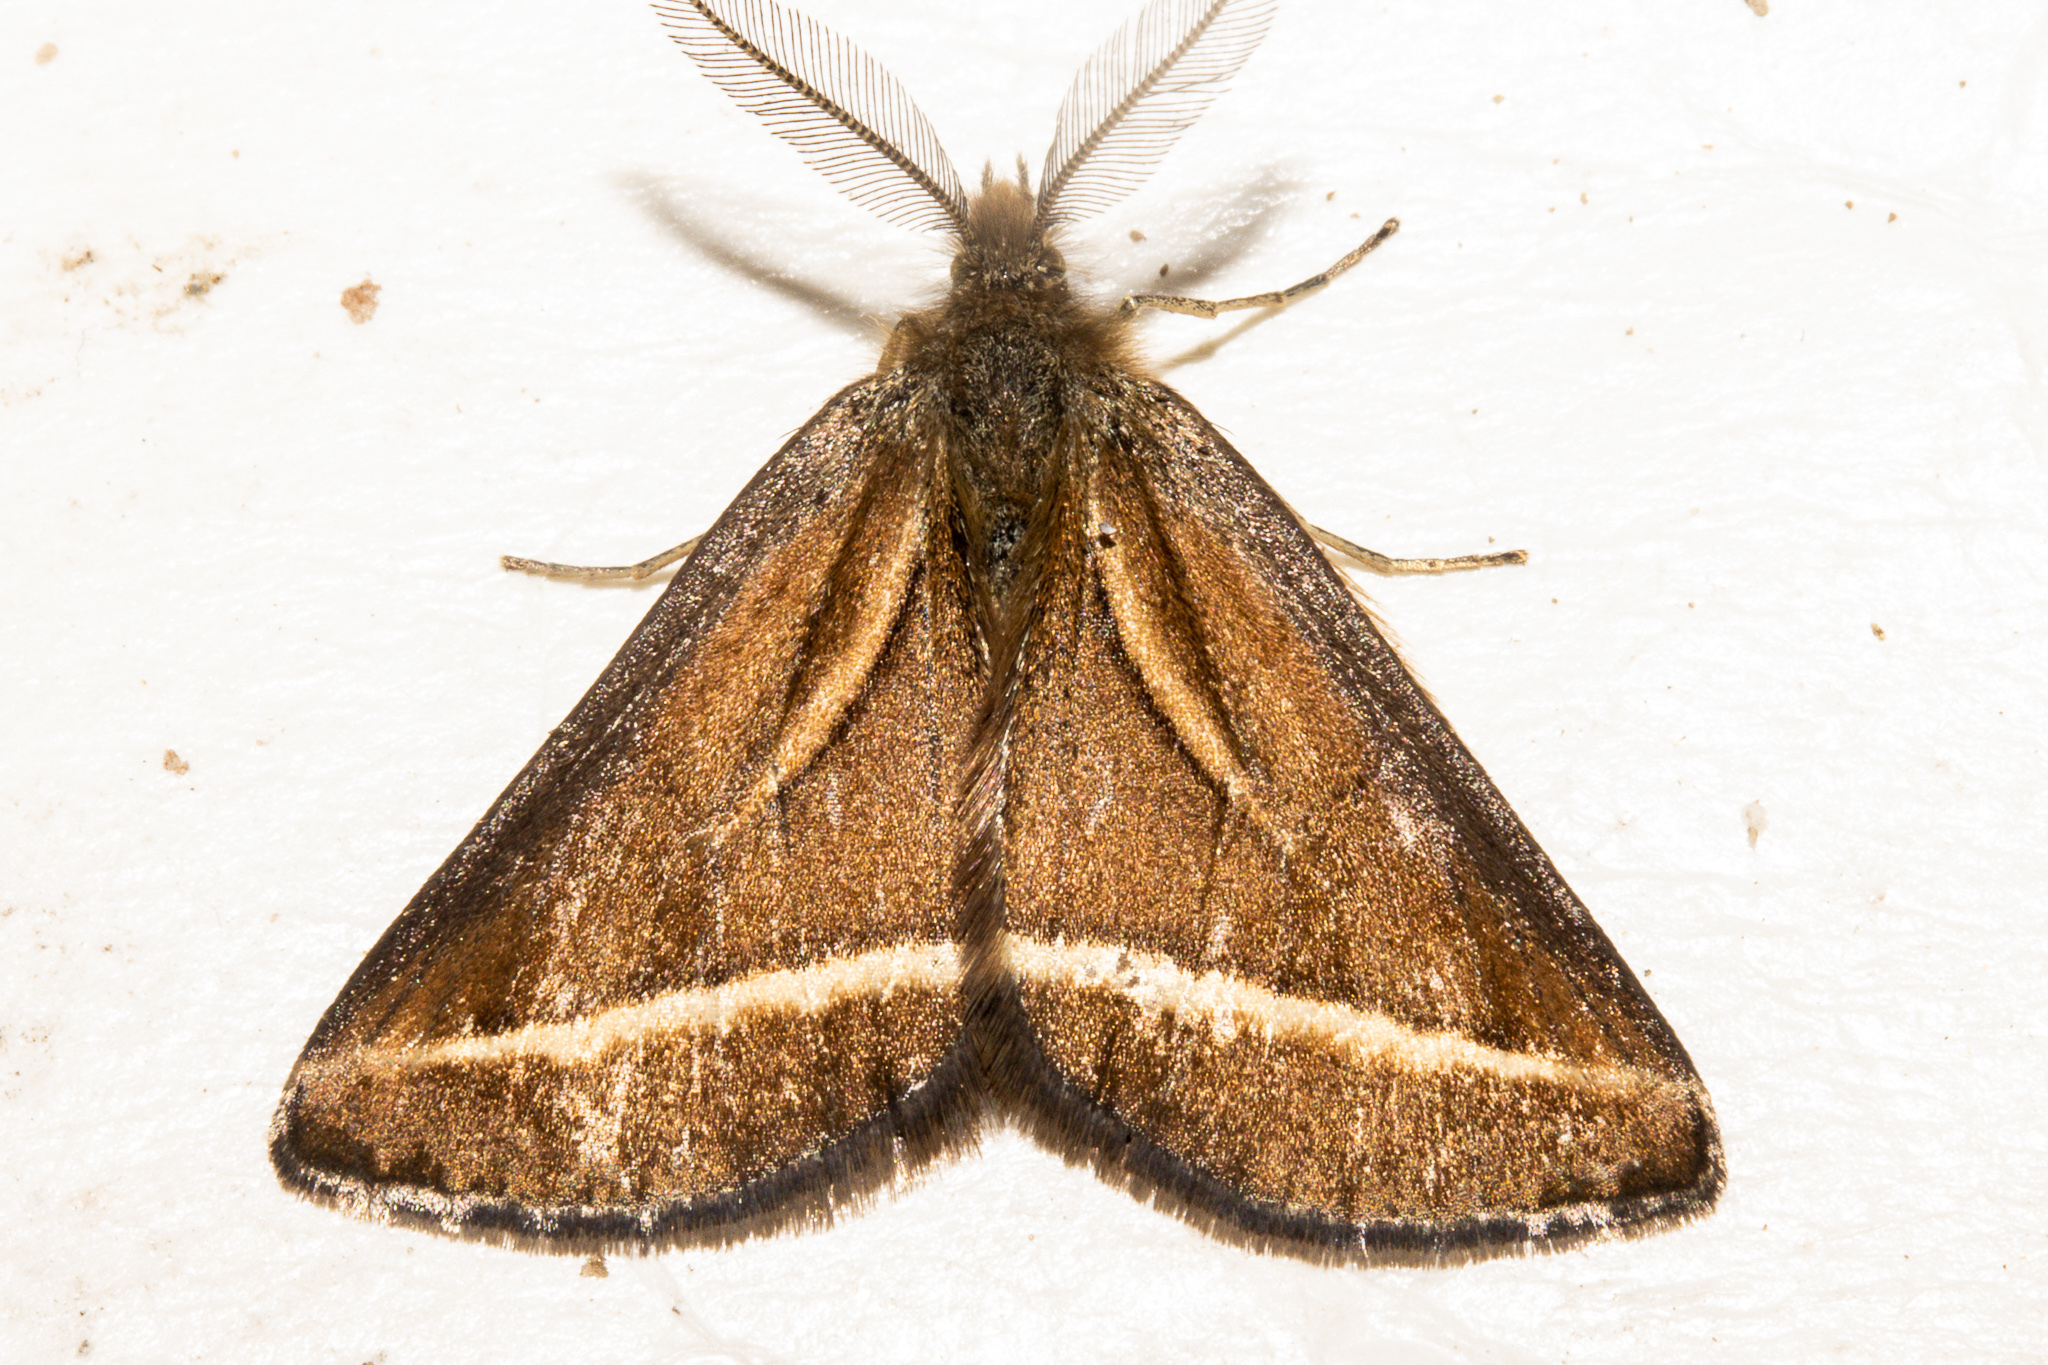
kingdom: Animalia
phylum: Arthropoda
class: Insecta
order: Lepidoptera
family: Geometridae
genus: Aponotoreas
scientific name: Aponotoreas insignis
